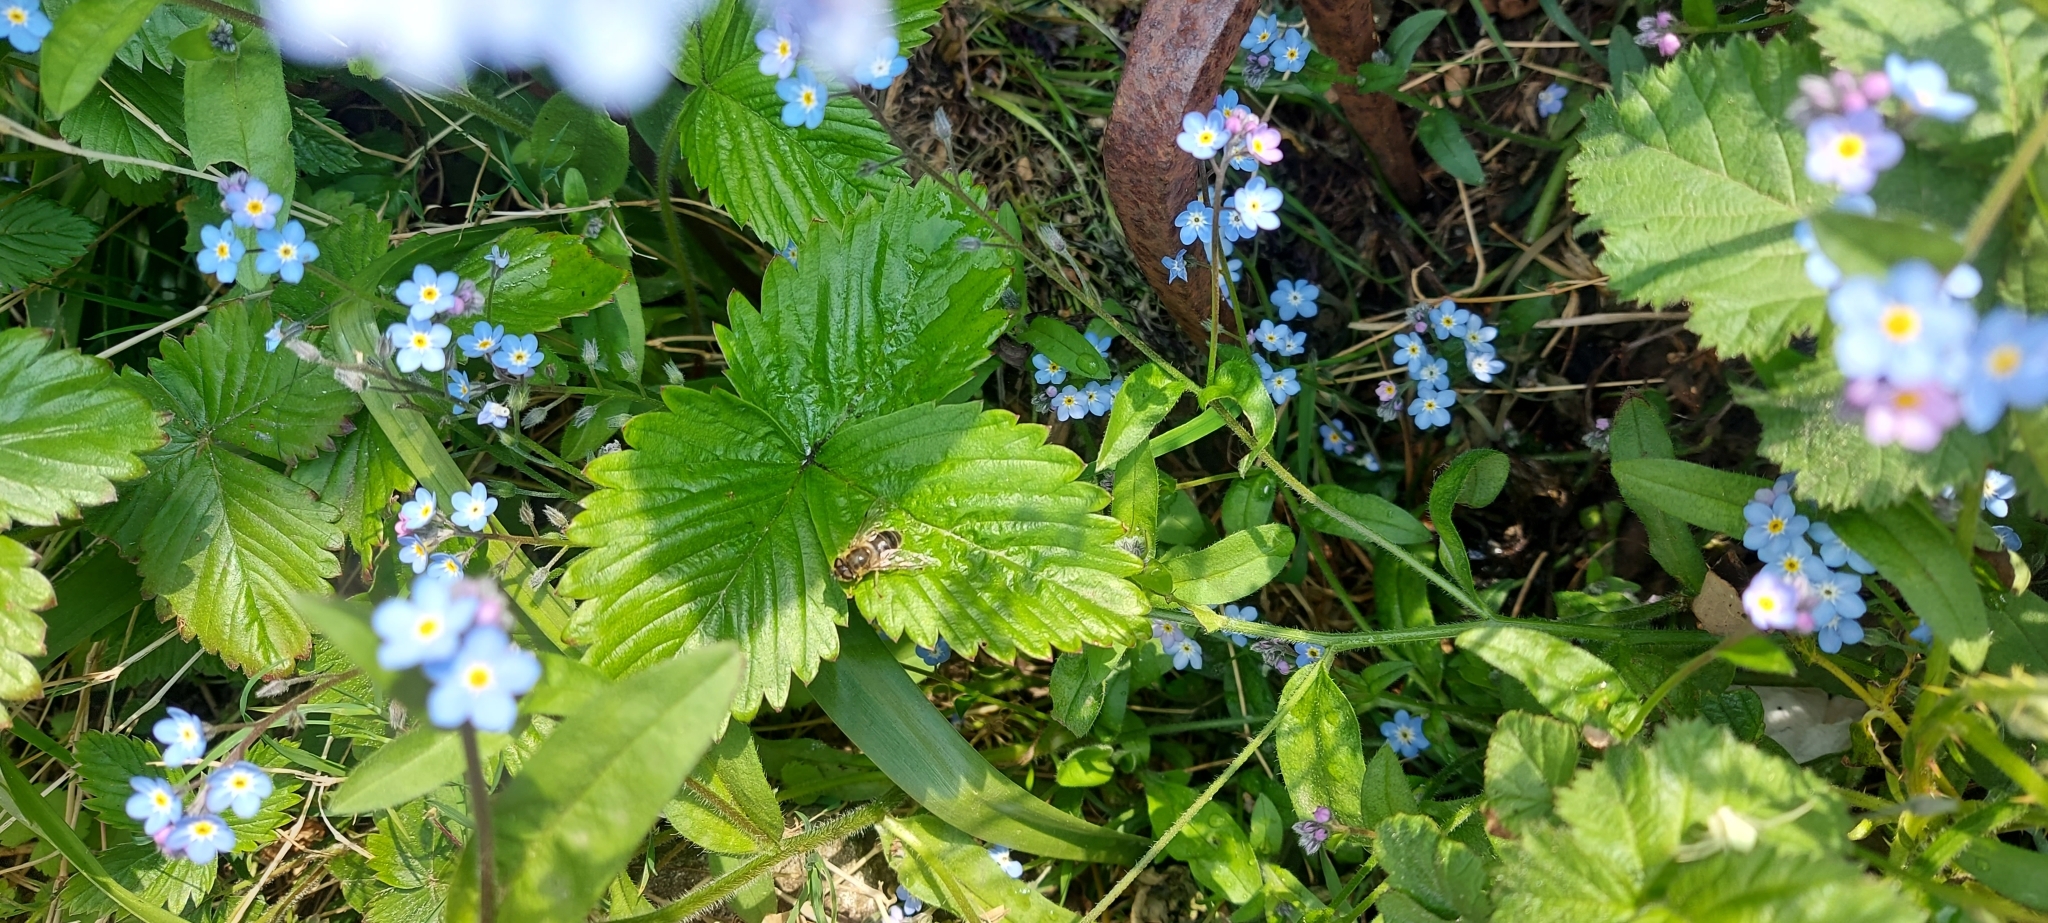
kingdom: Animalia
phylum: Arthropoda
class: Insecta
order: Diptera
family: Syrphidae
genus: Eristalis
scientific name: Eristalis pertinax
